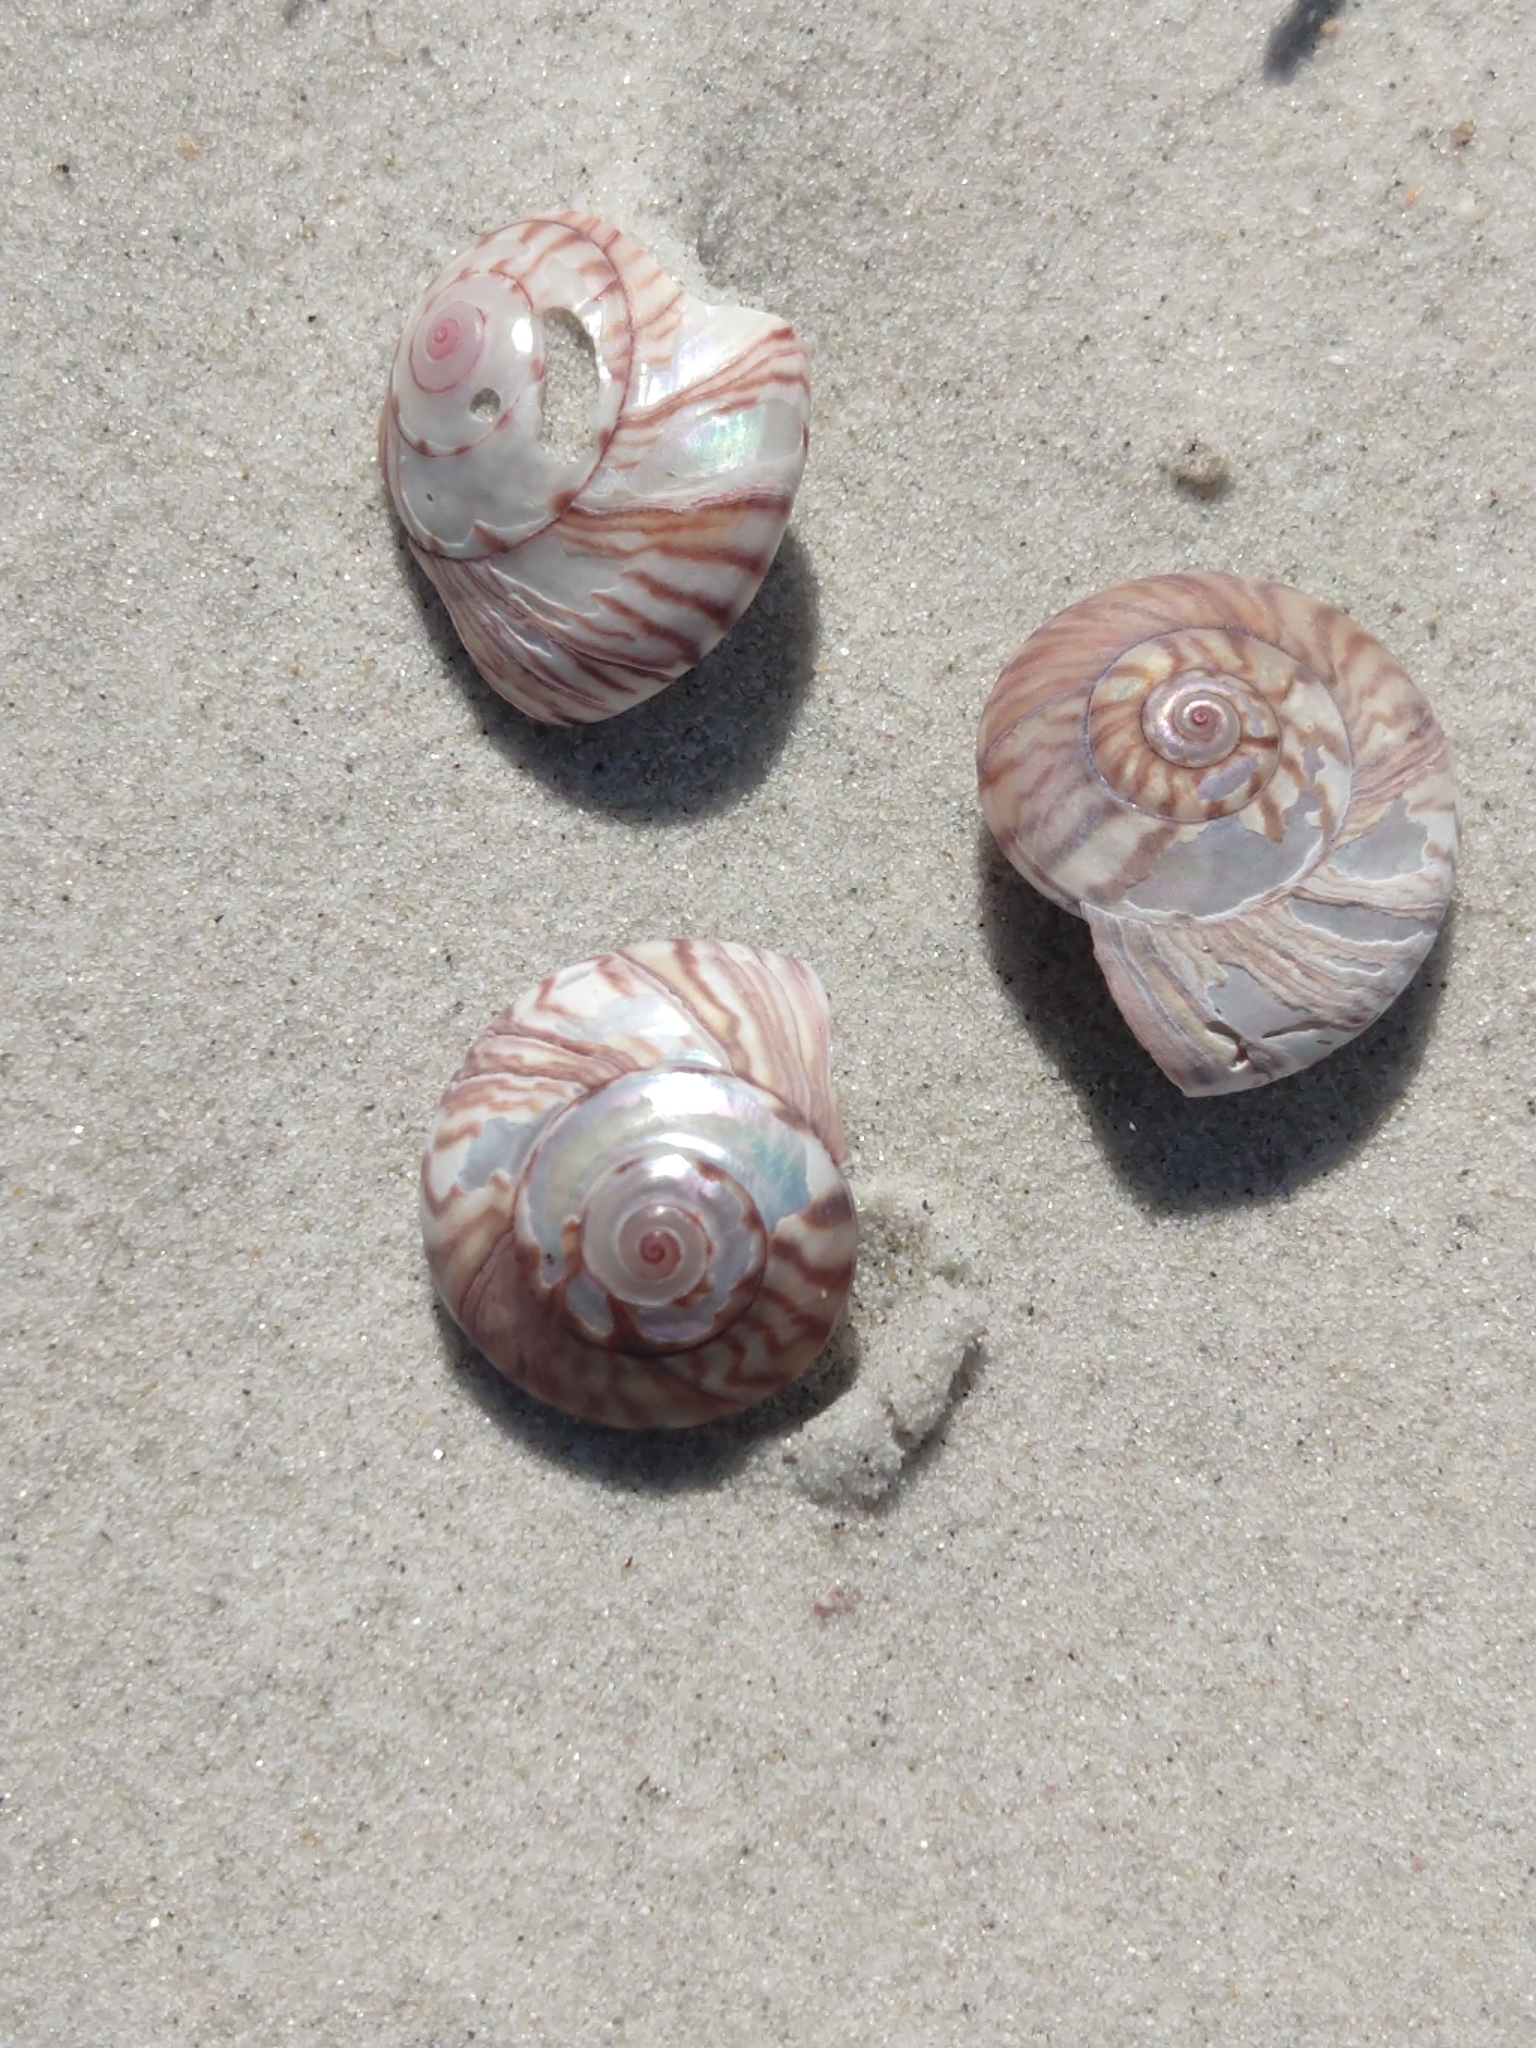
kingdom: Animalia
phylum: Mollusca
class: Gastropoda
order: Trochida
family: Trochidae
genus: Zethalia
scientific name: Zethalia zelandica
